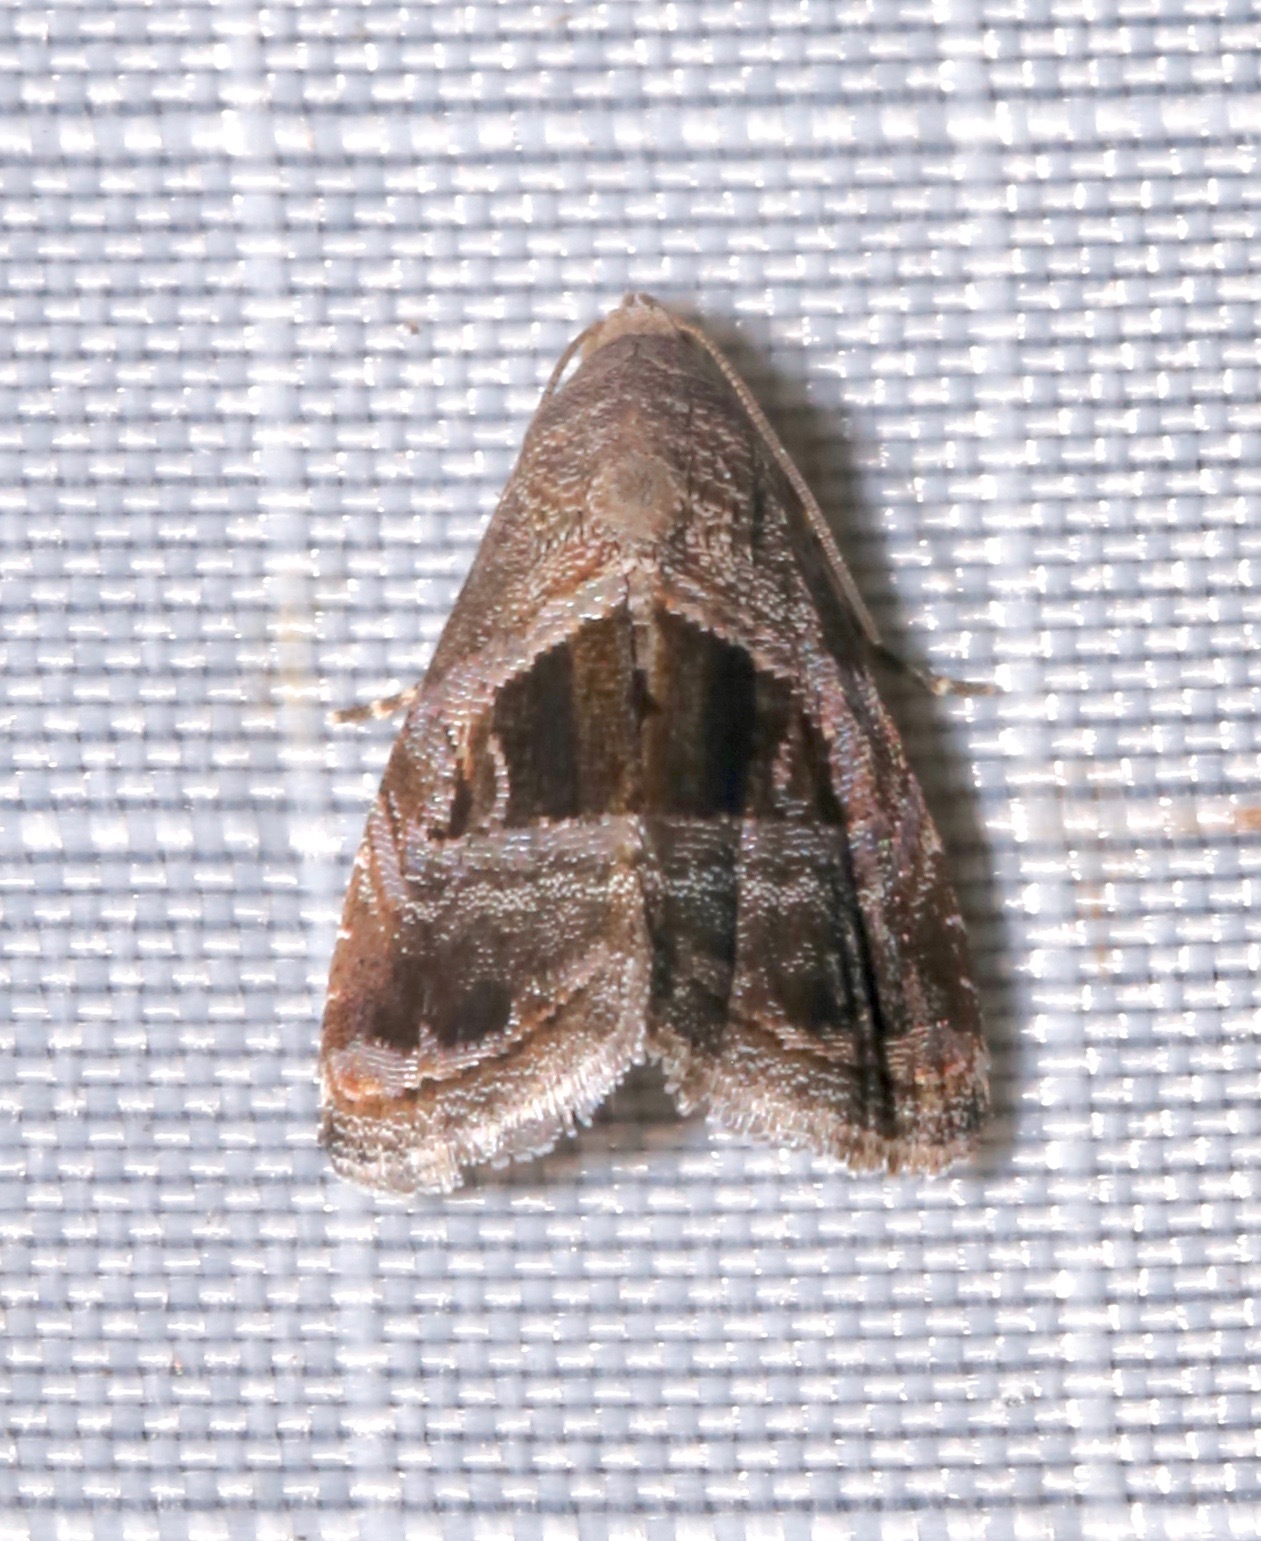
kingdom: Animalia
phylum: Arthropoda
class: Insecta
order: Lepidoptera
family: Noctuidae
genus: Tripudia
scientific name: Tripudia rectangula
